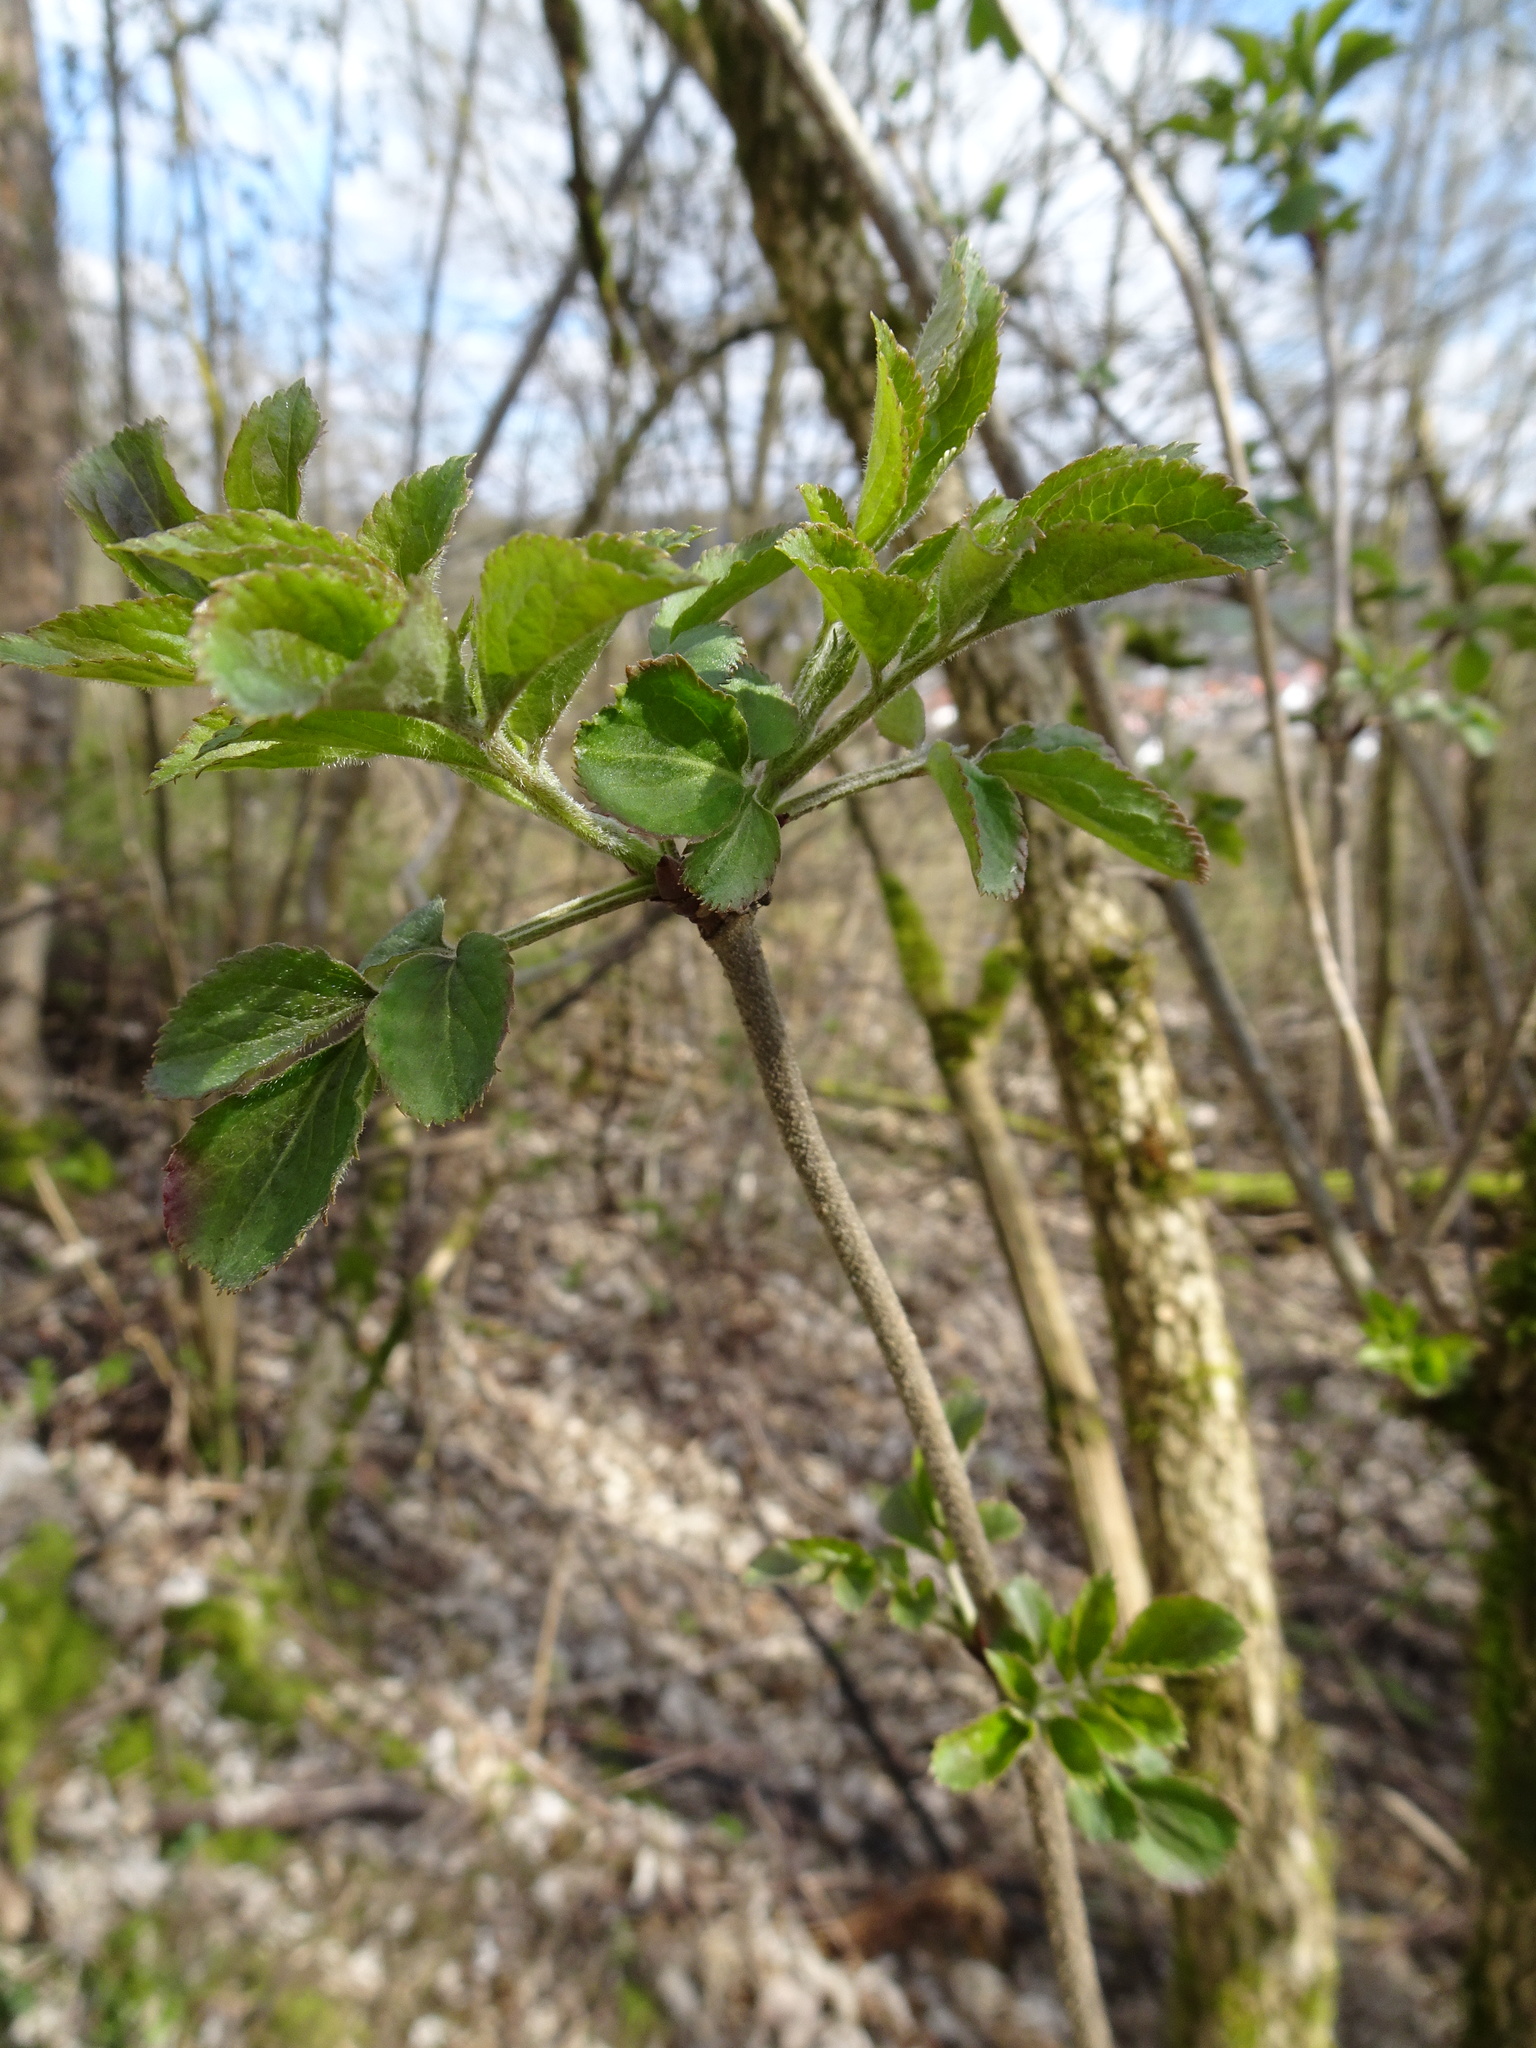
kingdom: Plantae
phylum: Tracheophyta
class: Magnoliopsida
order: Dipsacales
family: Viburnaceae
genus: Sambucus
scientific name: Sambucus nigra
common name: Elder
